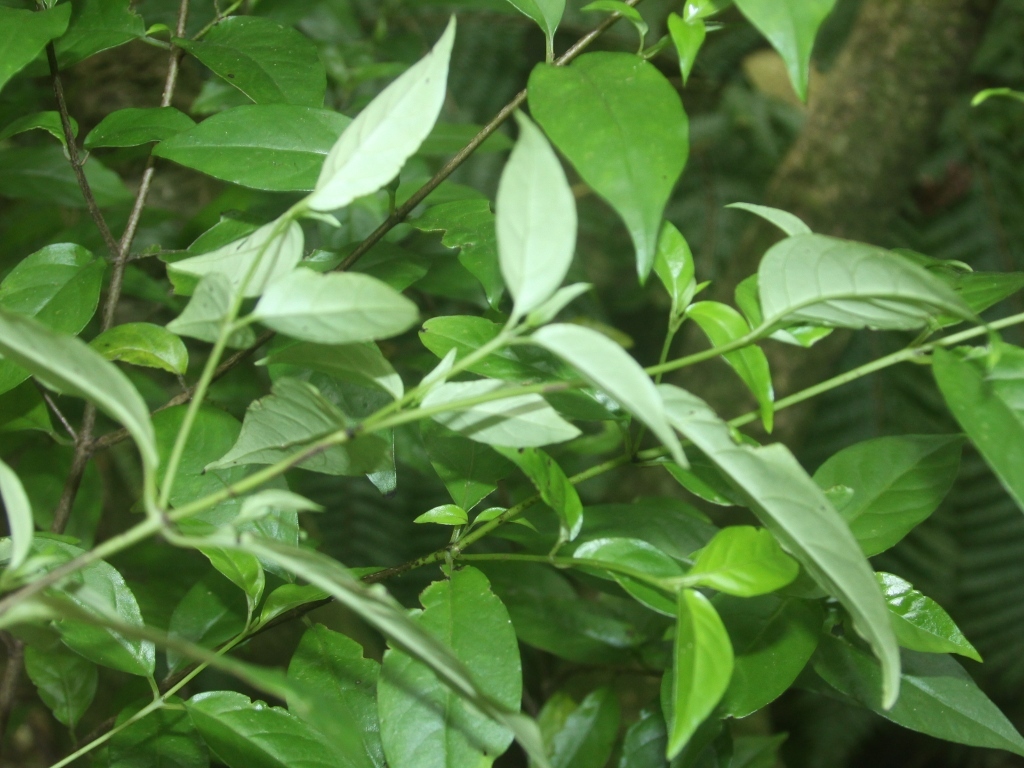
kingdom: Plantae
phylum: Tracheophyta
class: Magnoliopsida
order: Gentianales
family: Loganiaceae
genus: Geniostoma
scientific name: Geniostoma ligustrifolium
